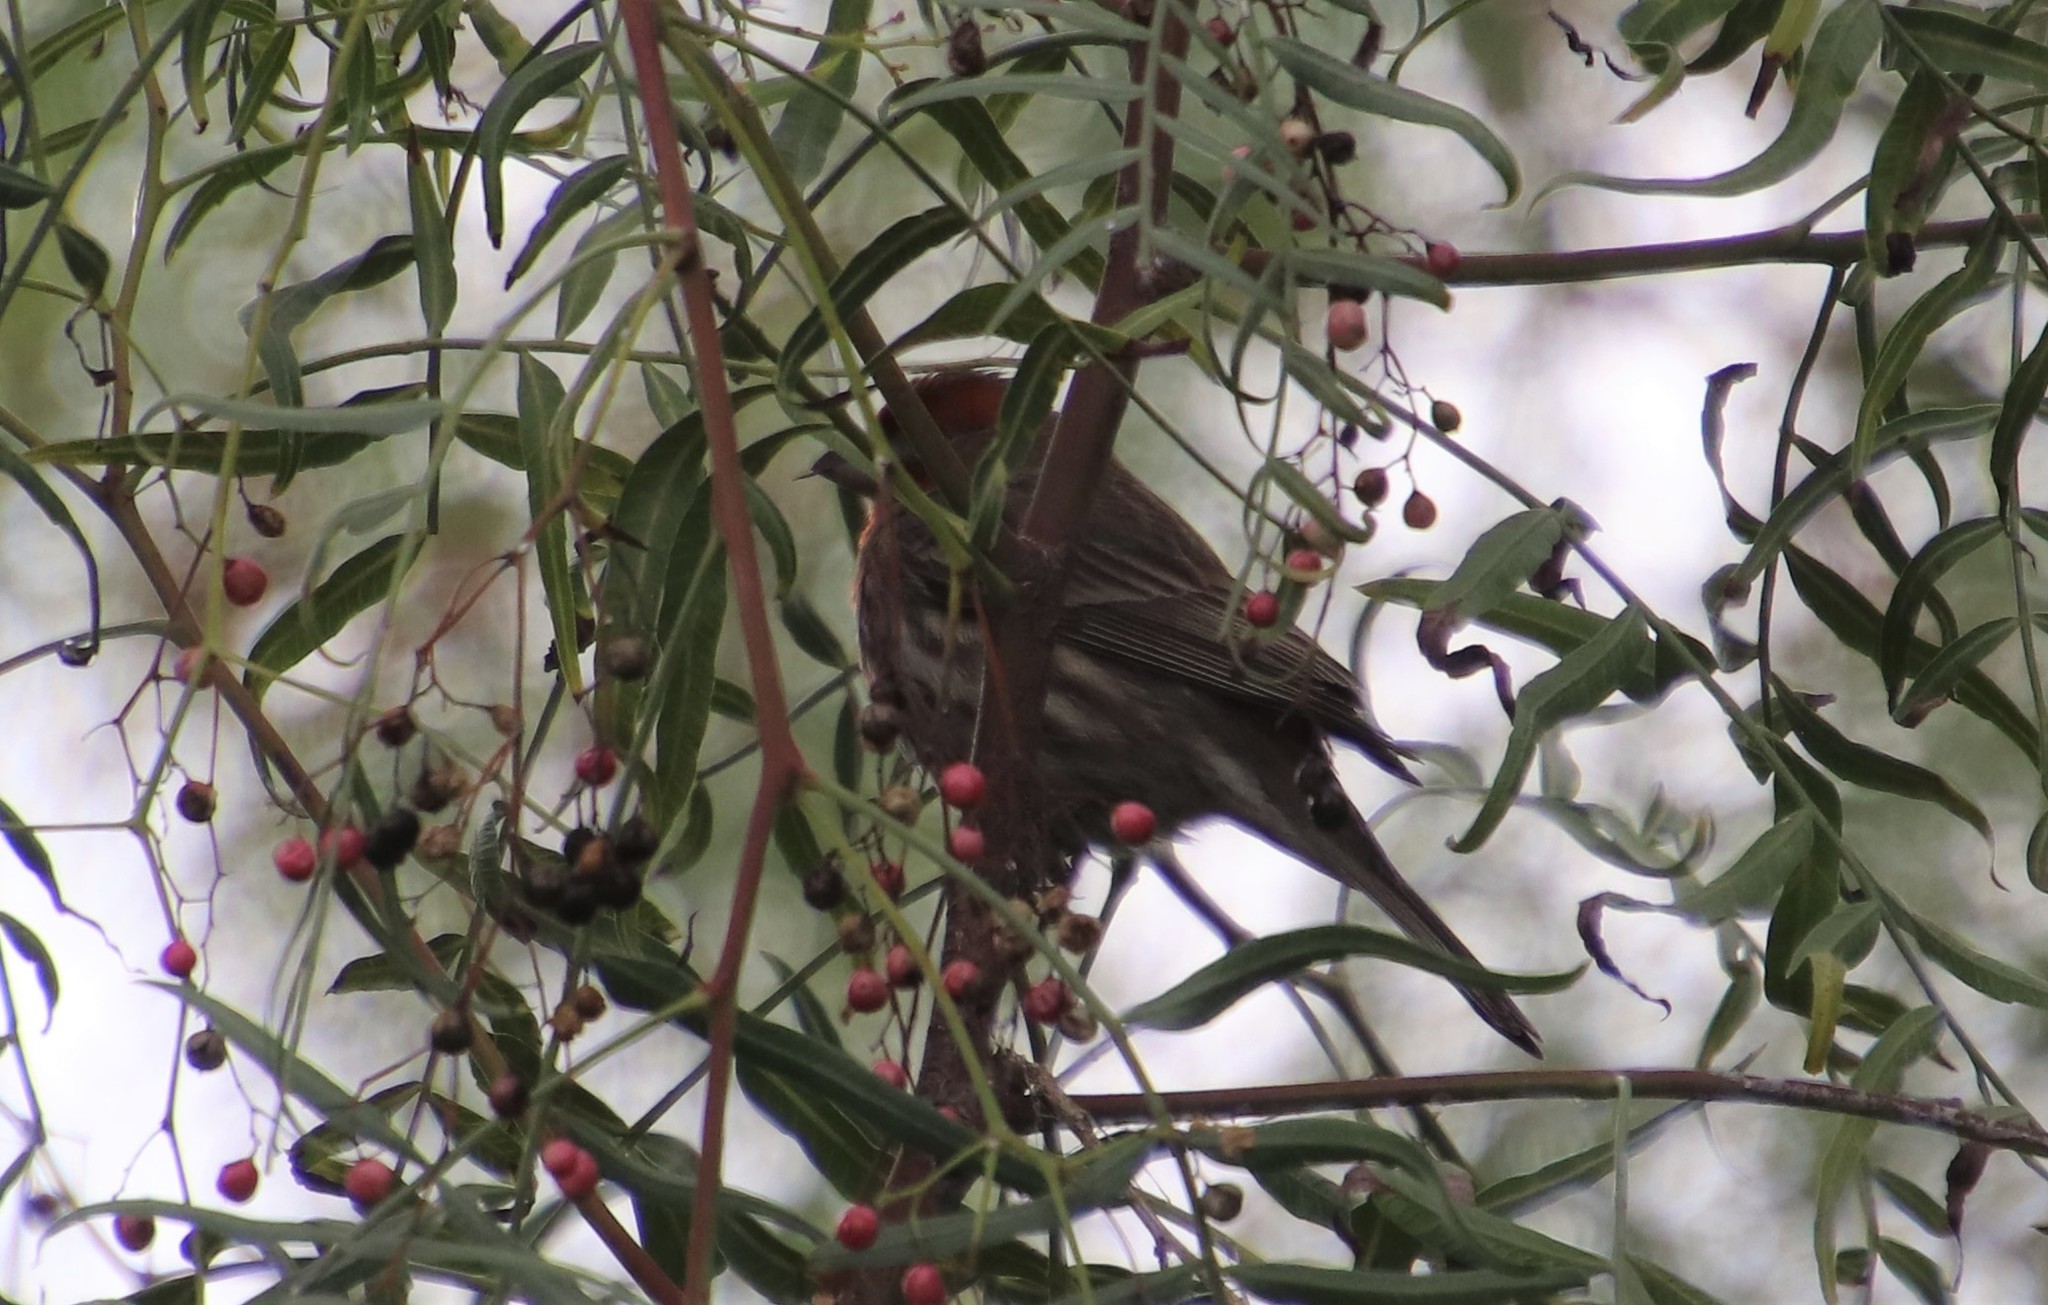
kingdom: Animalia
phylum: Chordata
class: Aves
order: Passeriformes
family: Fringillidae
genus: Haemorhous
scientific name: Haemorhous mexicanus
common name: House finch
